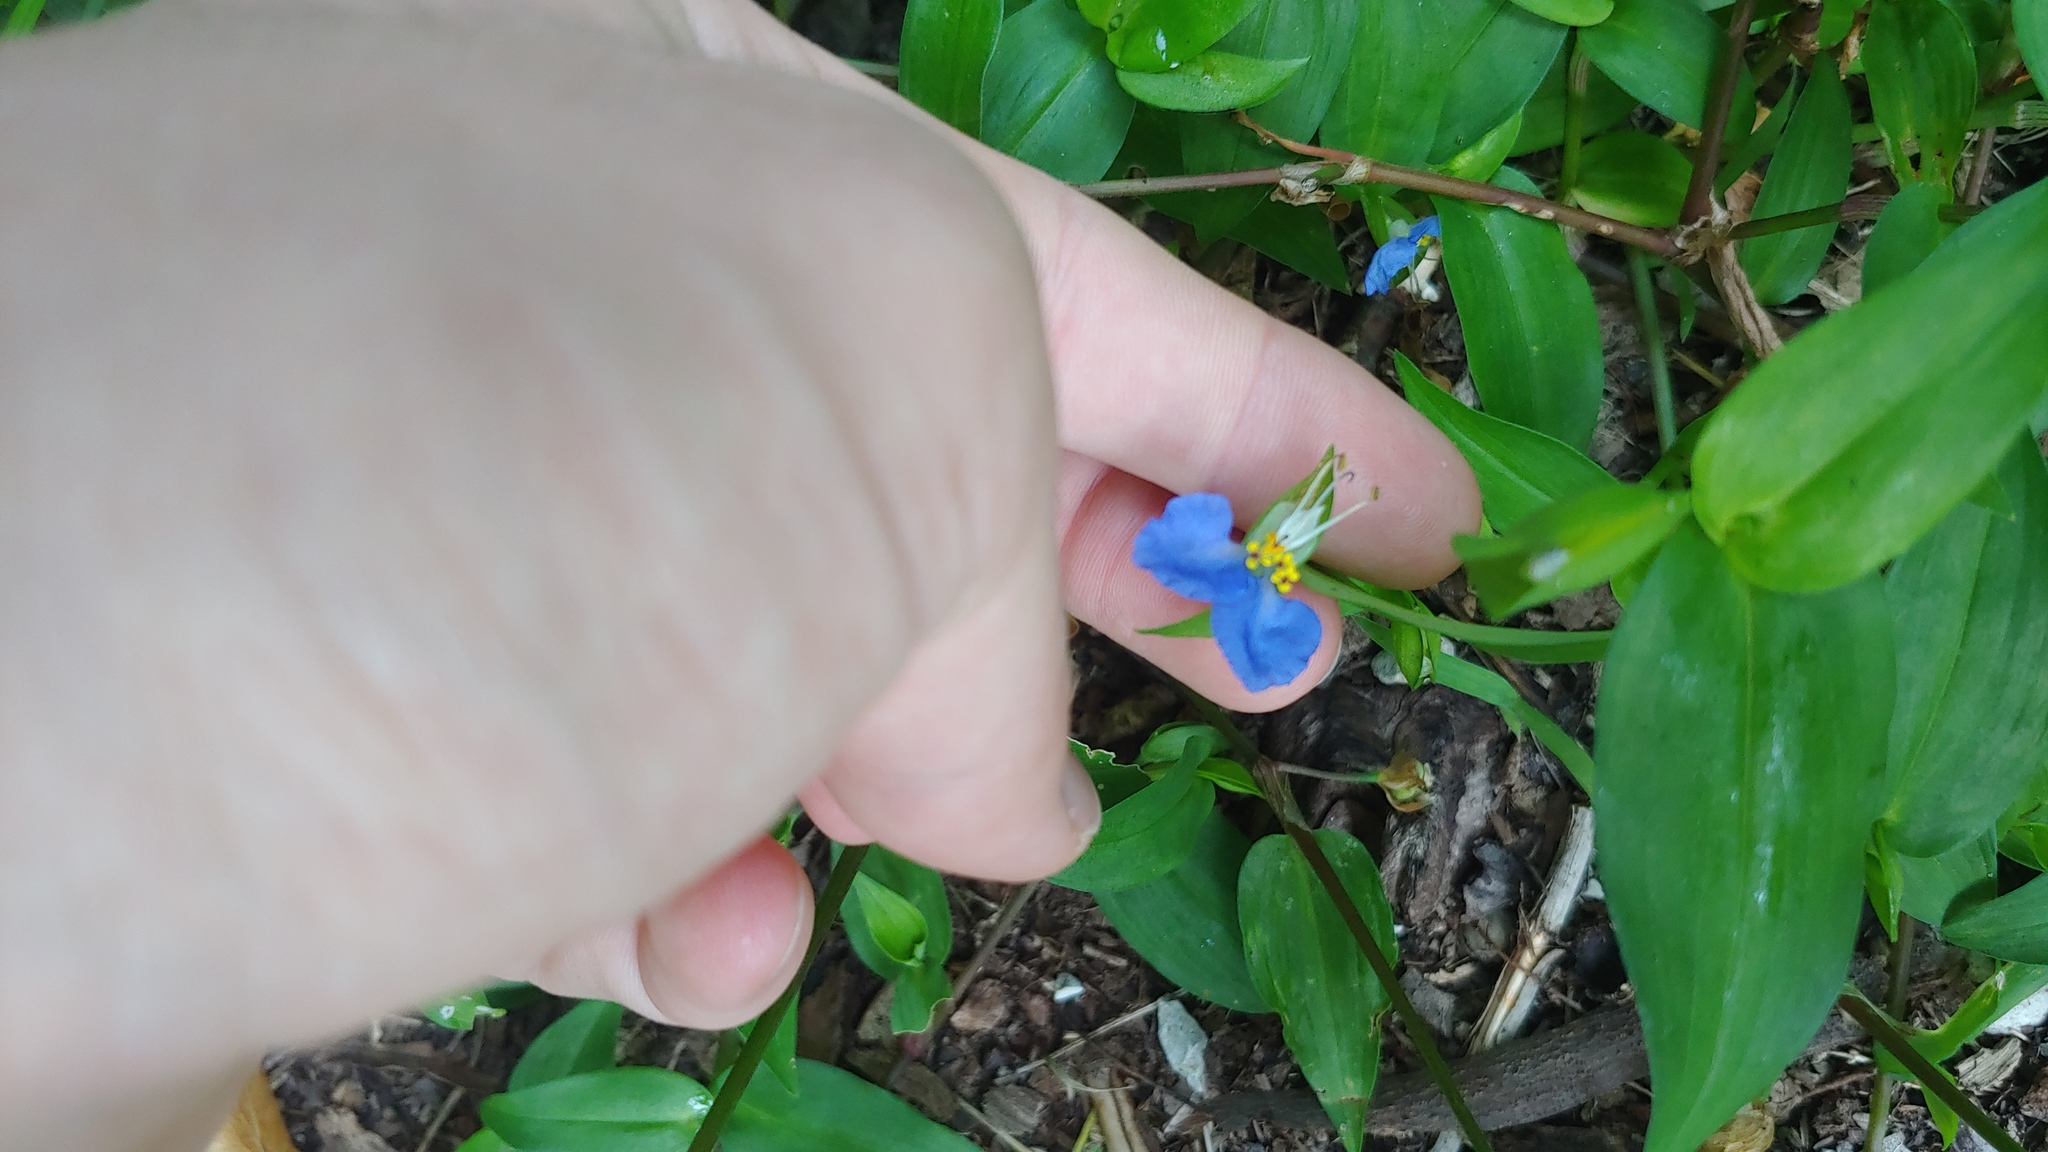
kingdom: Plantae
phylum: Tracheophyta
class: Liliopsida
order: Commelinales
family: Commelinaceae
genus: Commelina
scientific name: Commelina communis
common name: Asiatic dayflower
